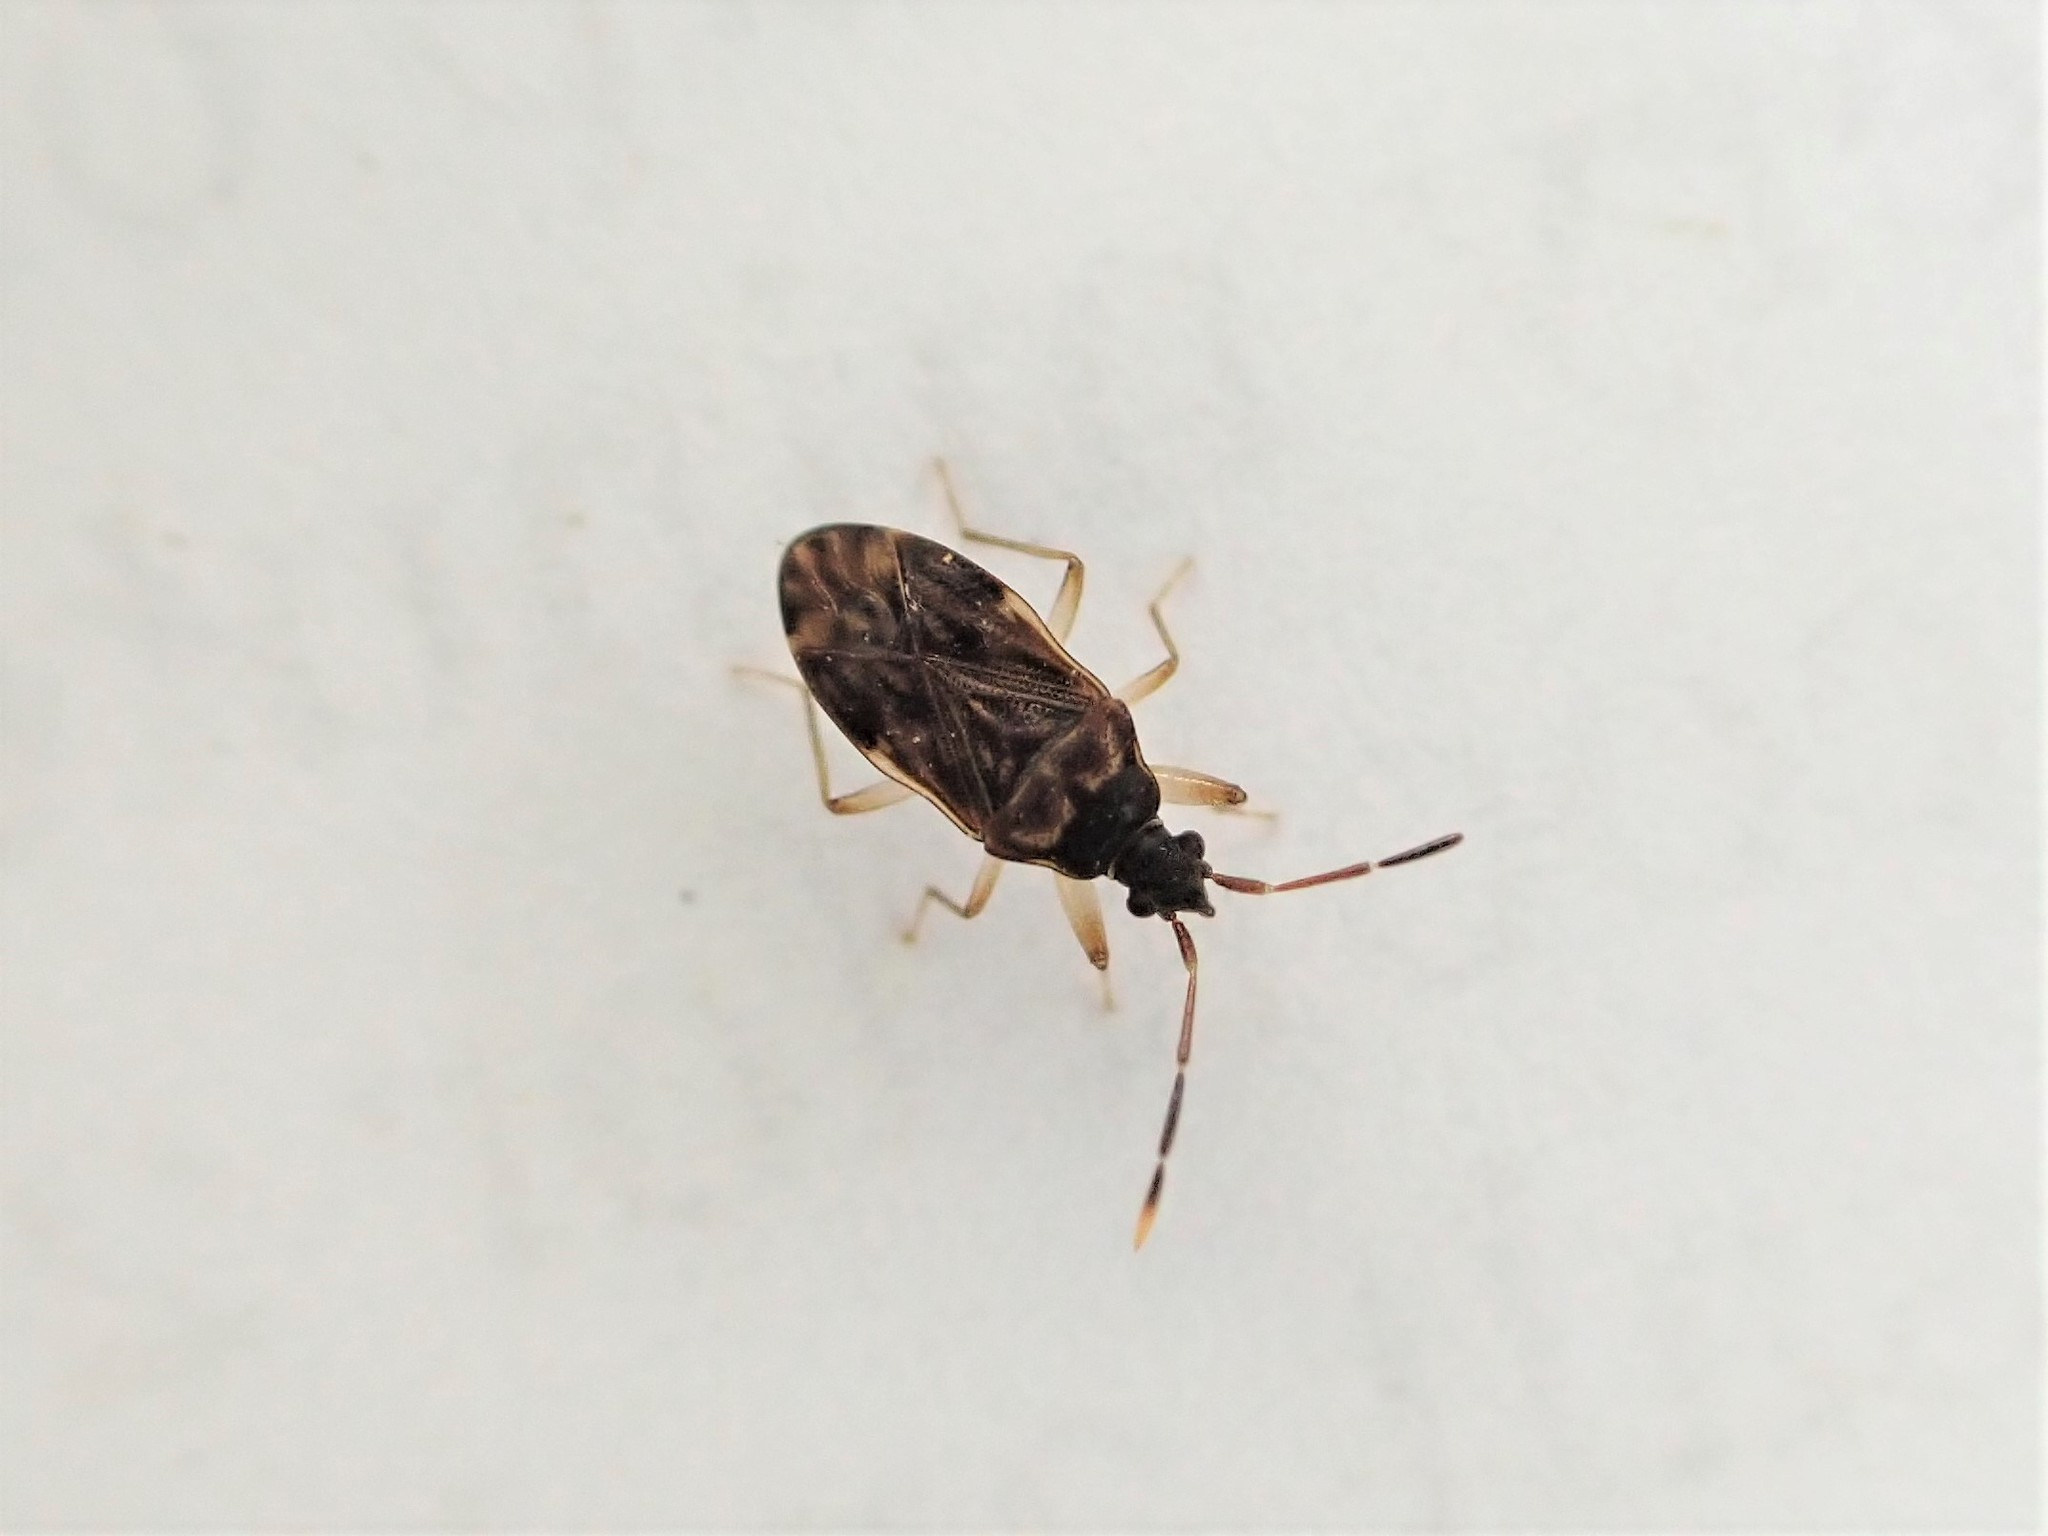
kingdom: Animalia
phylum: Arthropoda
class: Insecta
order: Hemiptera
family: Rhyparochromidae
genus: Grossander
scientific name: Grossander major
